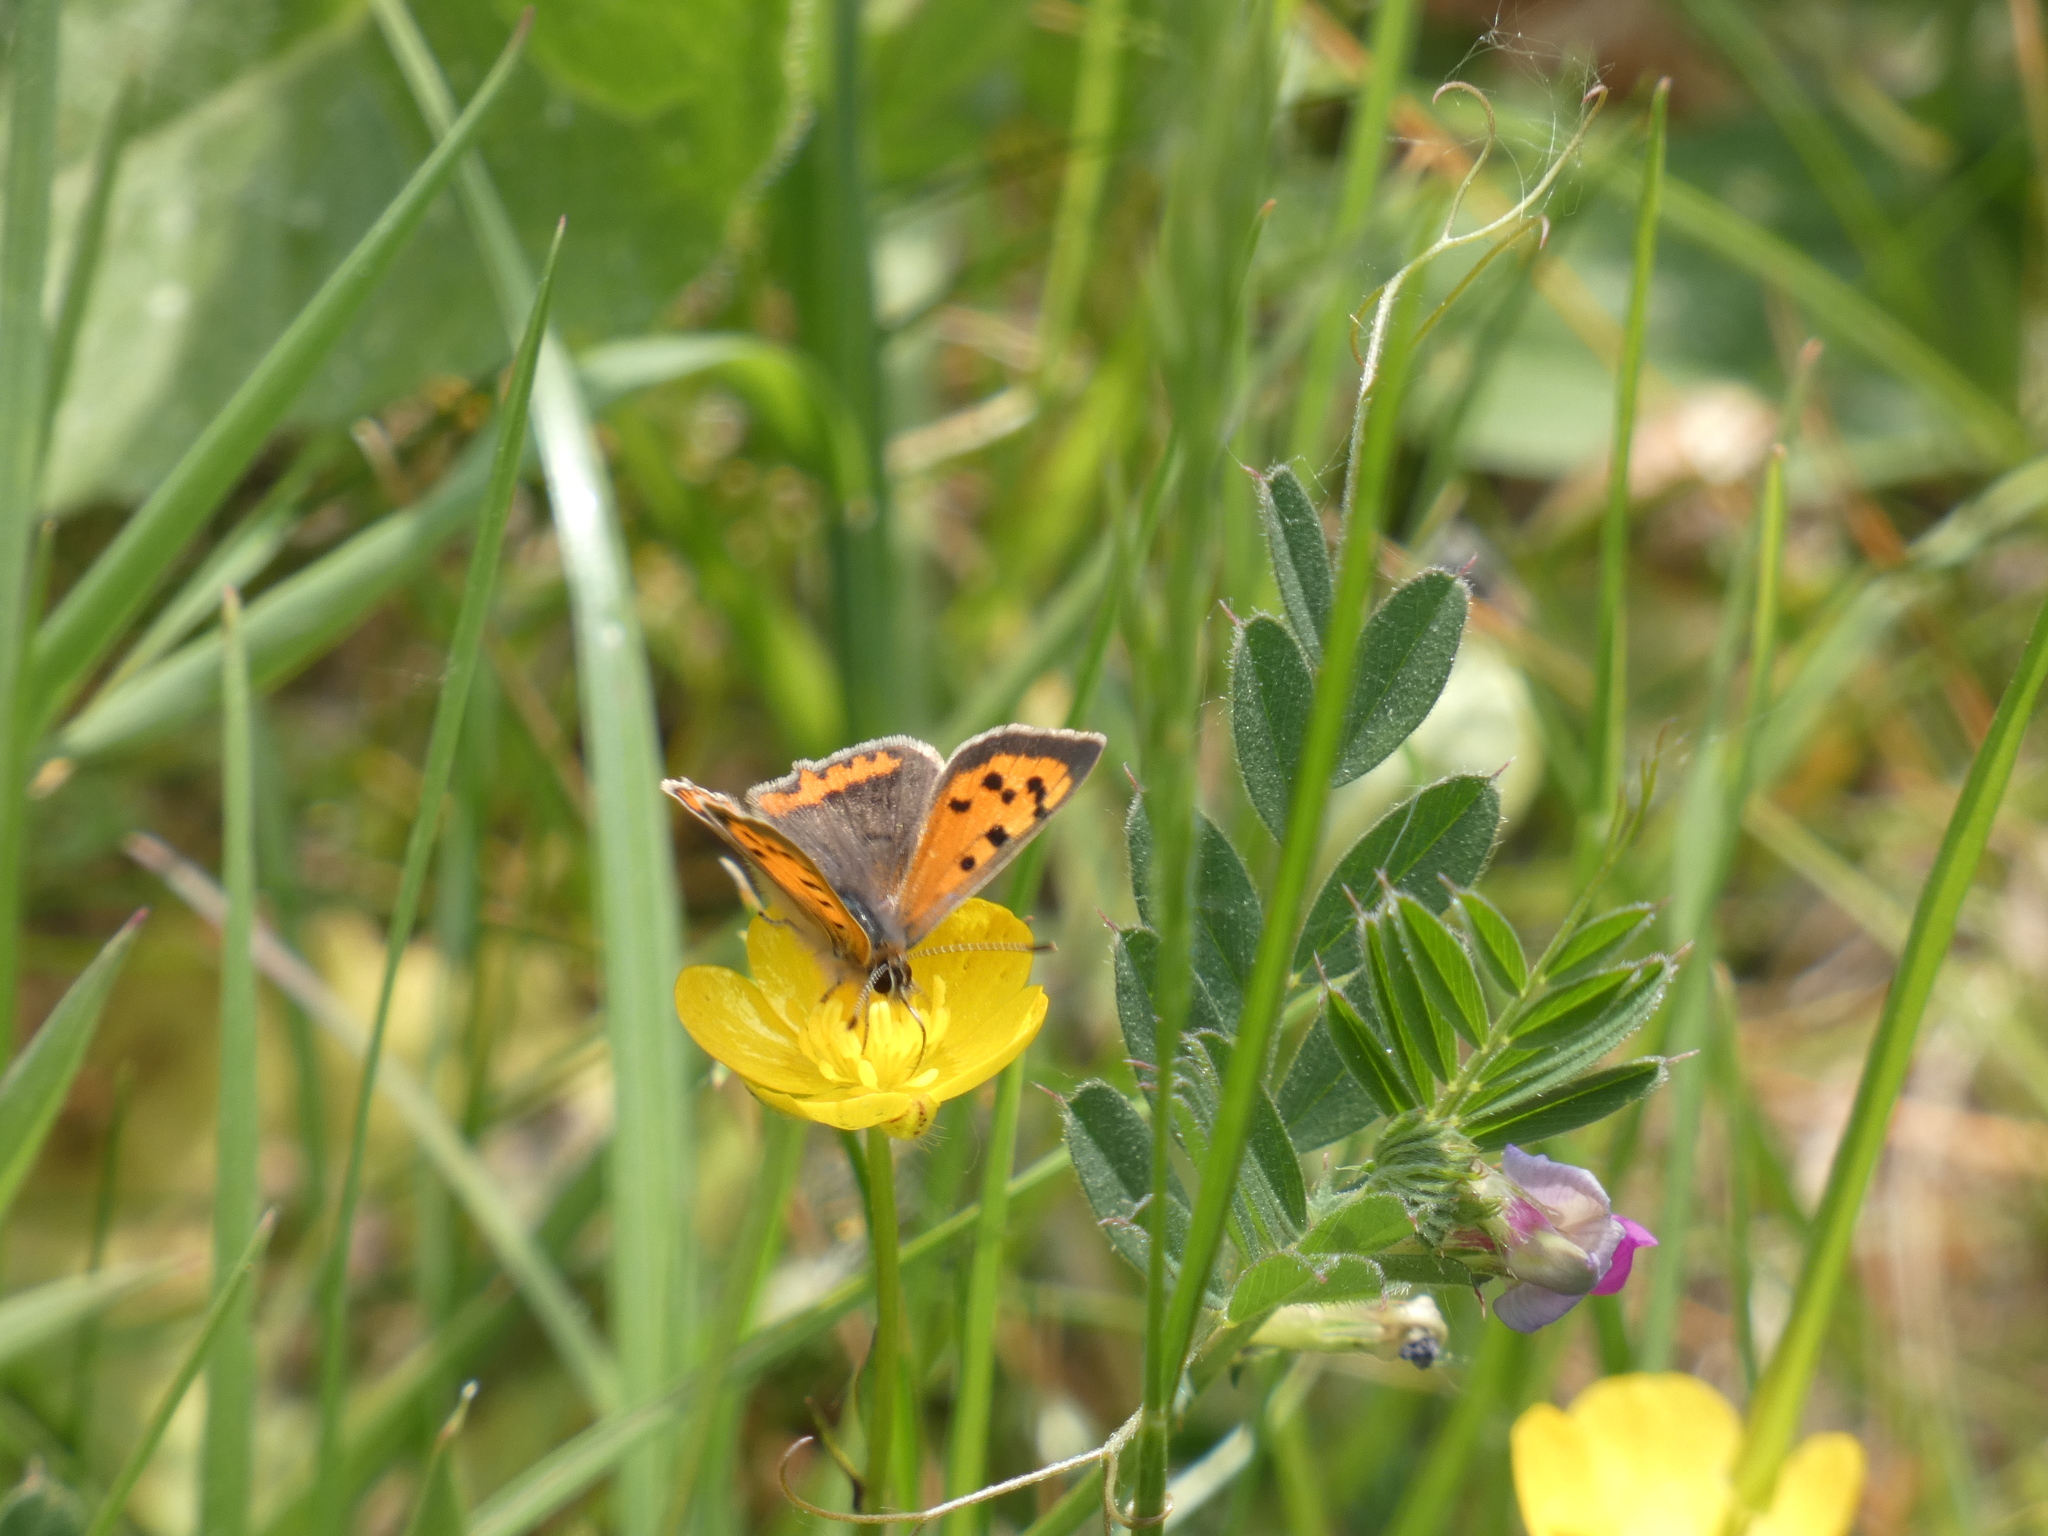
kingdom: Animalia
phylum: Arthropoda
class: Insecta
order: Lepidoptera
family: Lycaenidae
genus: Lycaena
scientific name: Lycaena phlaeas
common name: Small copper
